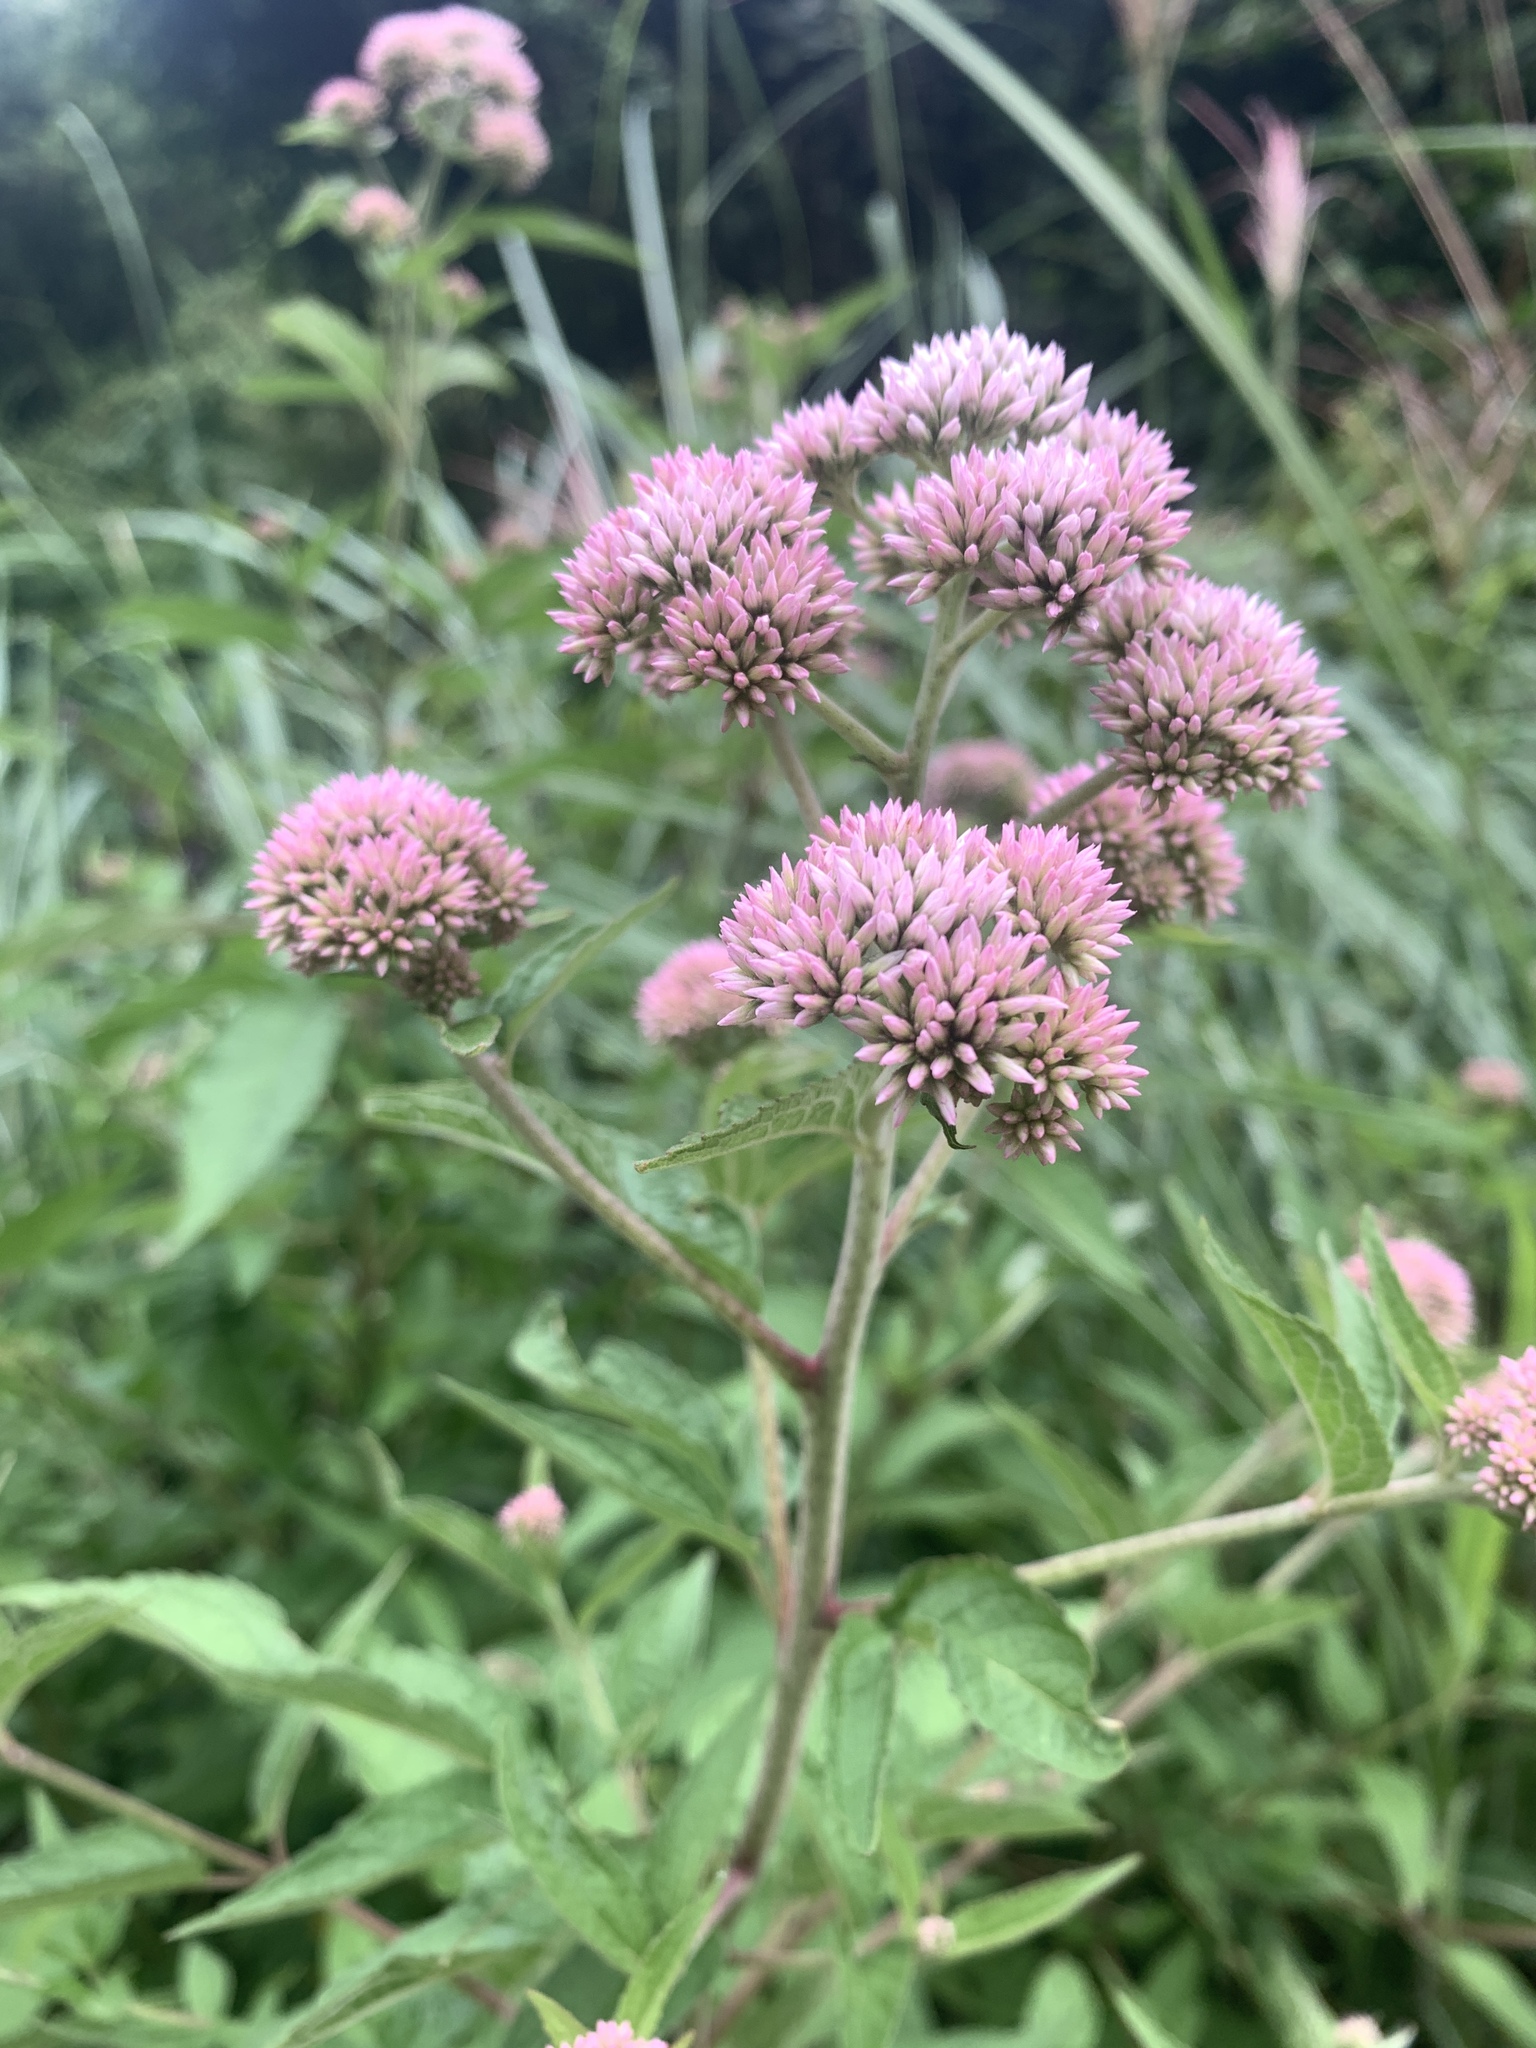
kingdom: Plantae
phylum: Tracheophyta
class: Magnoliopsida
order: Asterales
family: Asteraceae
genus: Eupatorium
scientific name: Eupatorium formosanum
